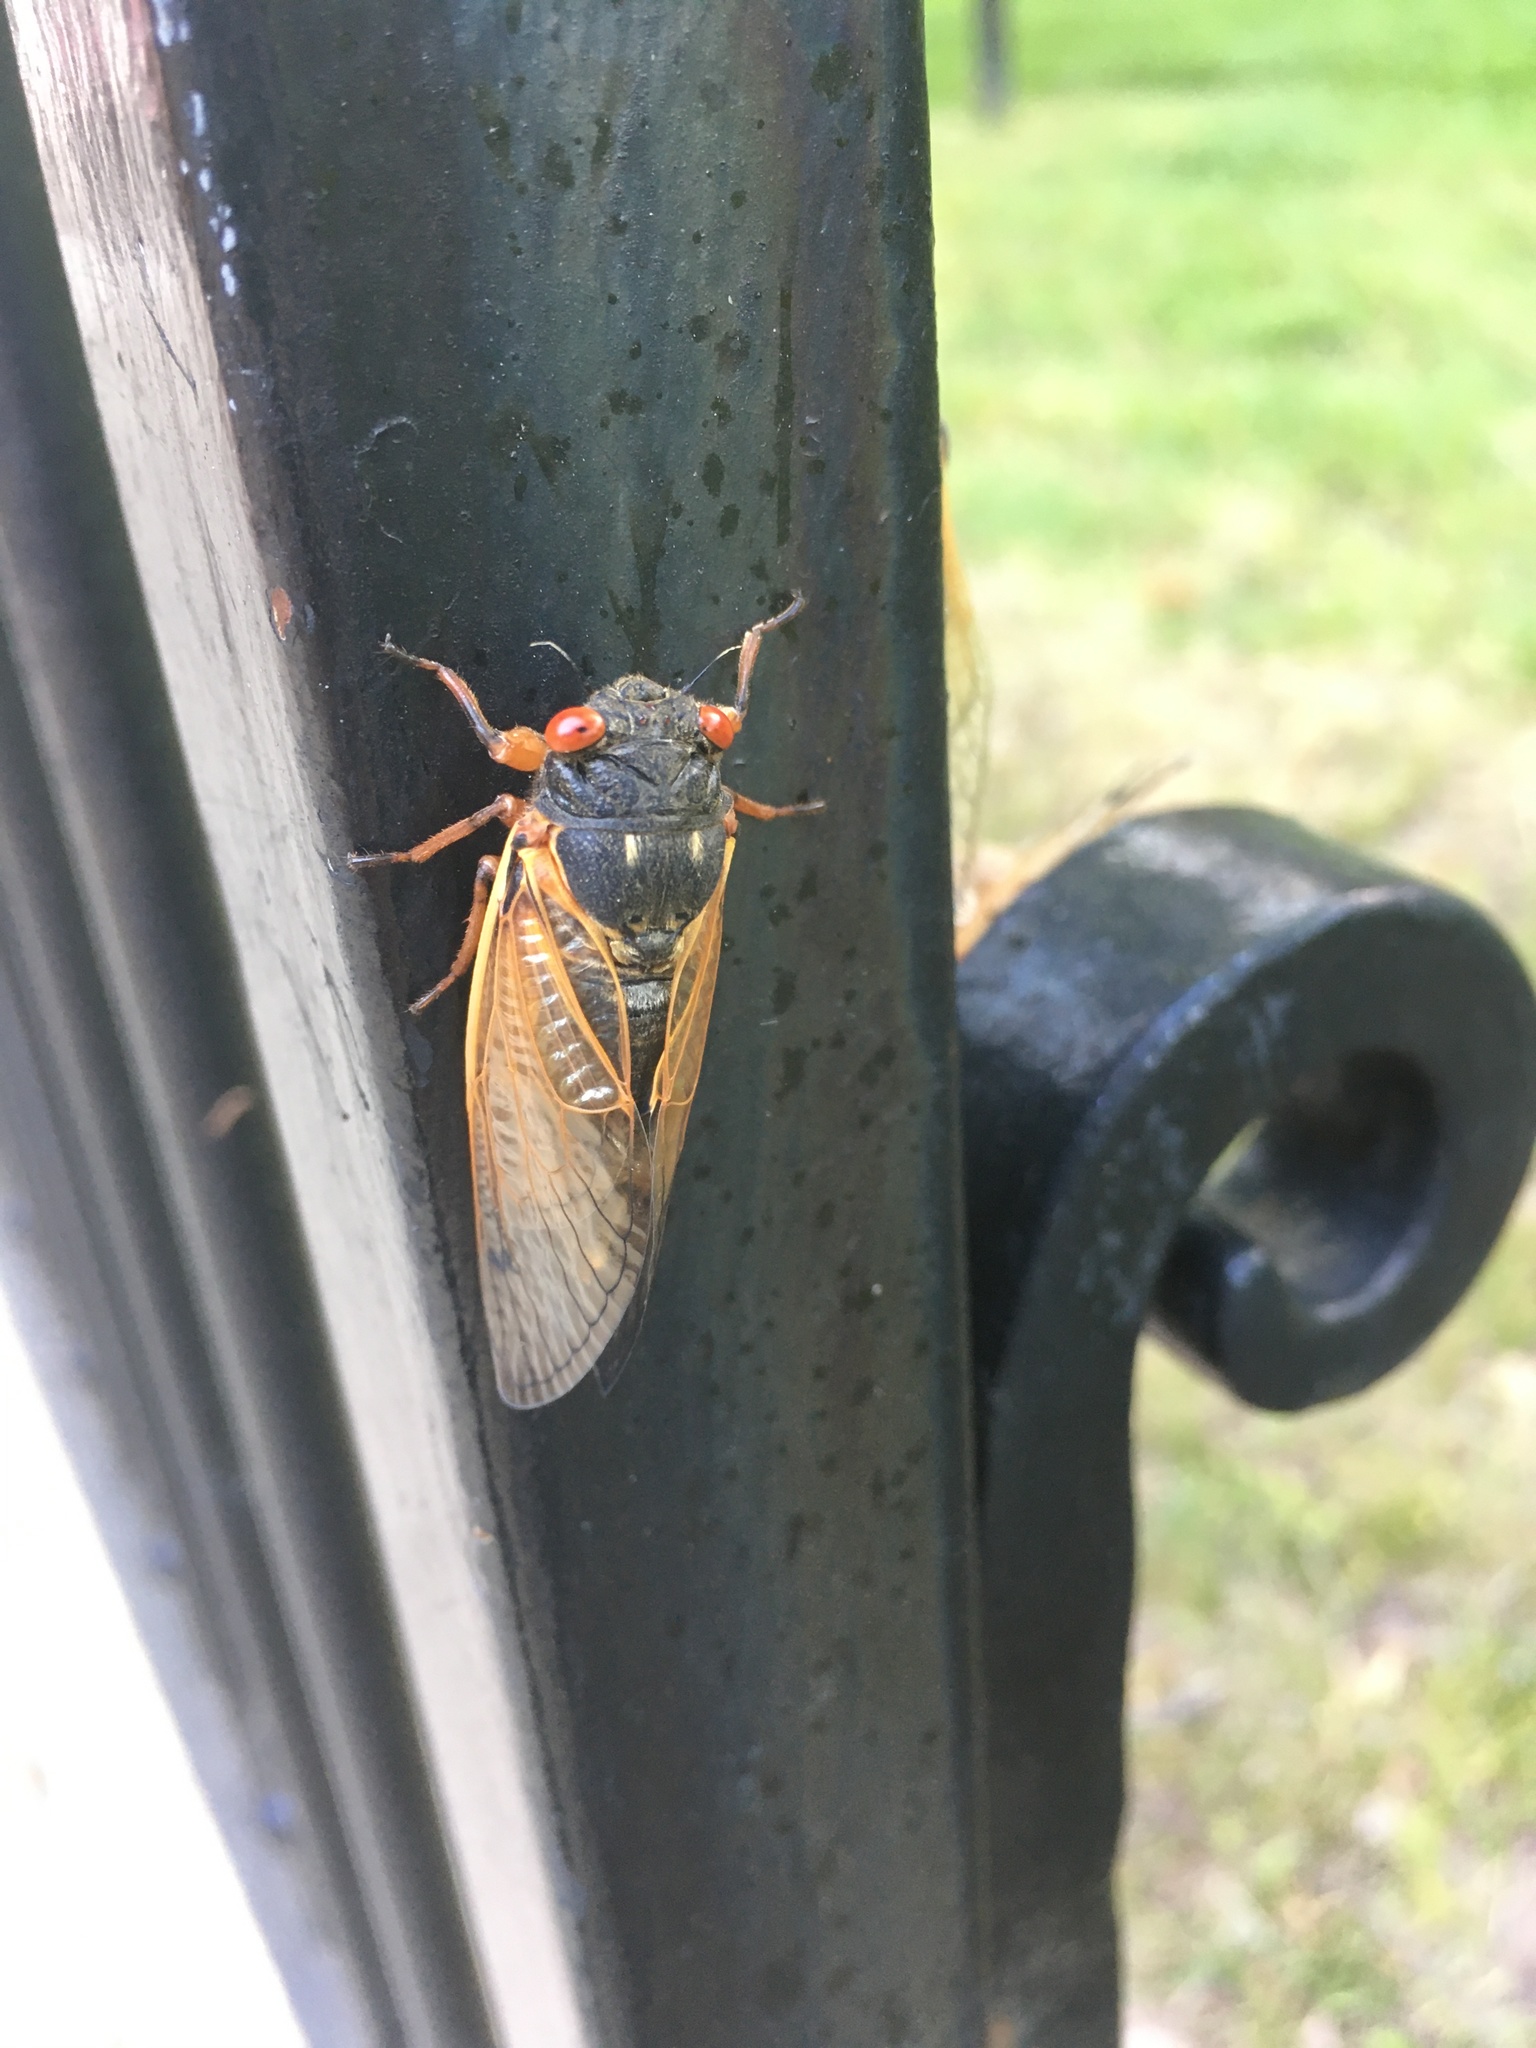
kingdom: Animalia
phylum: Arthropoda
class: Insecta
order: Hemiptera
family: Cicadidae
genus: Magicicada
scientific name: Magicicada
